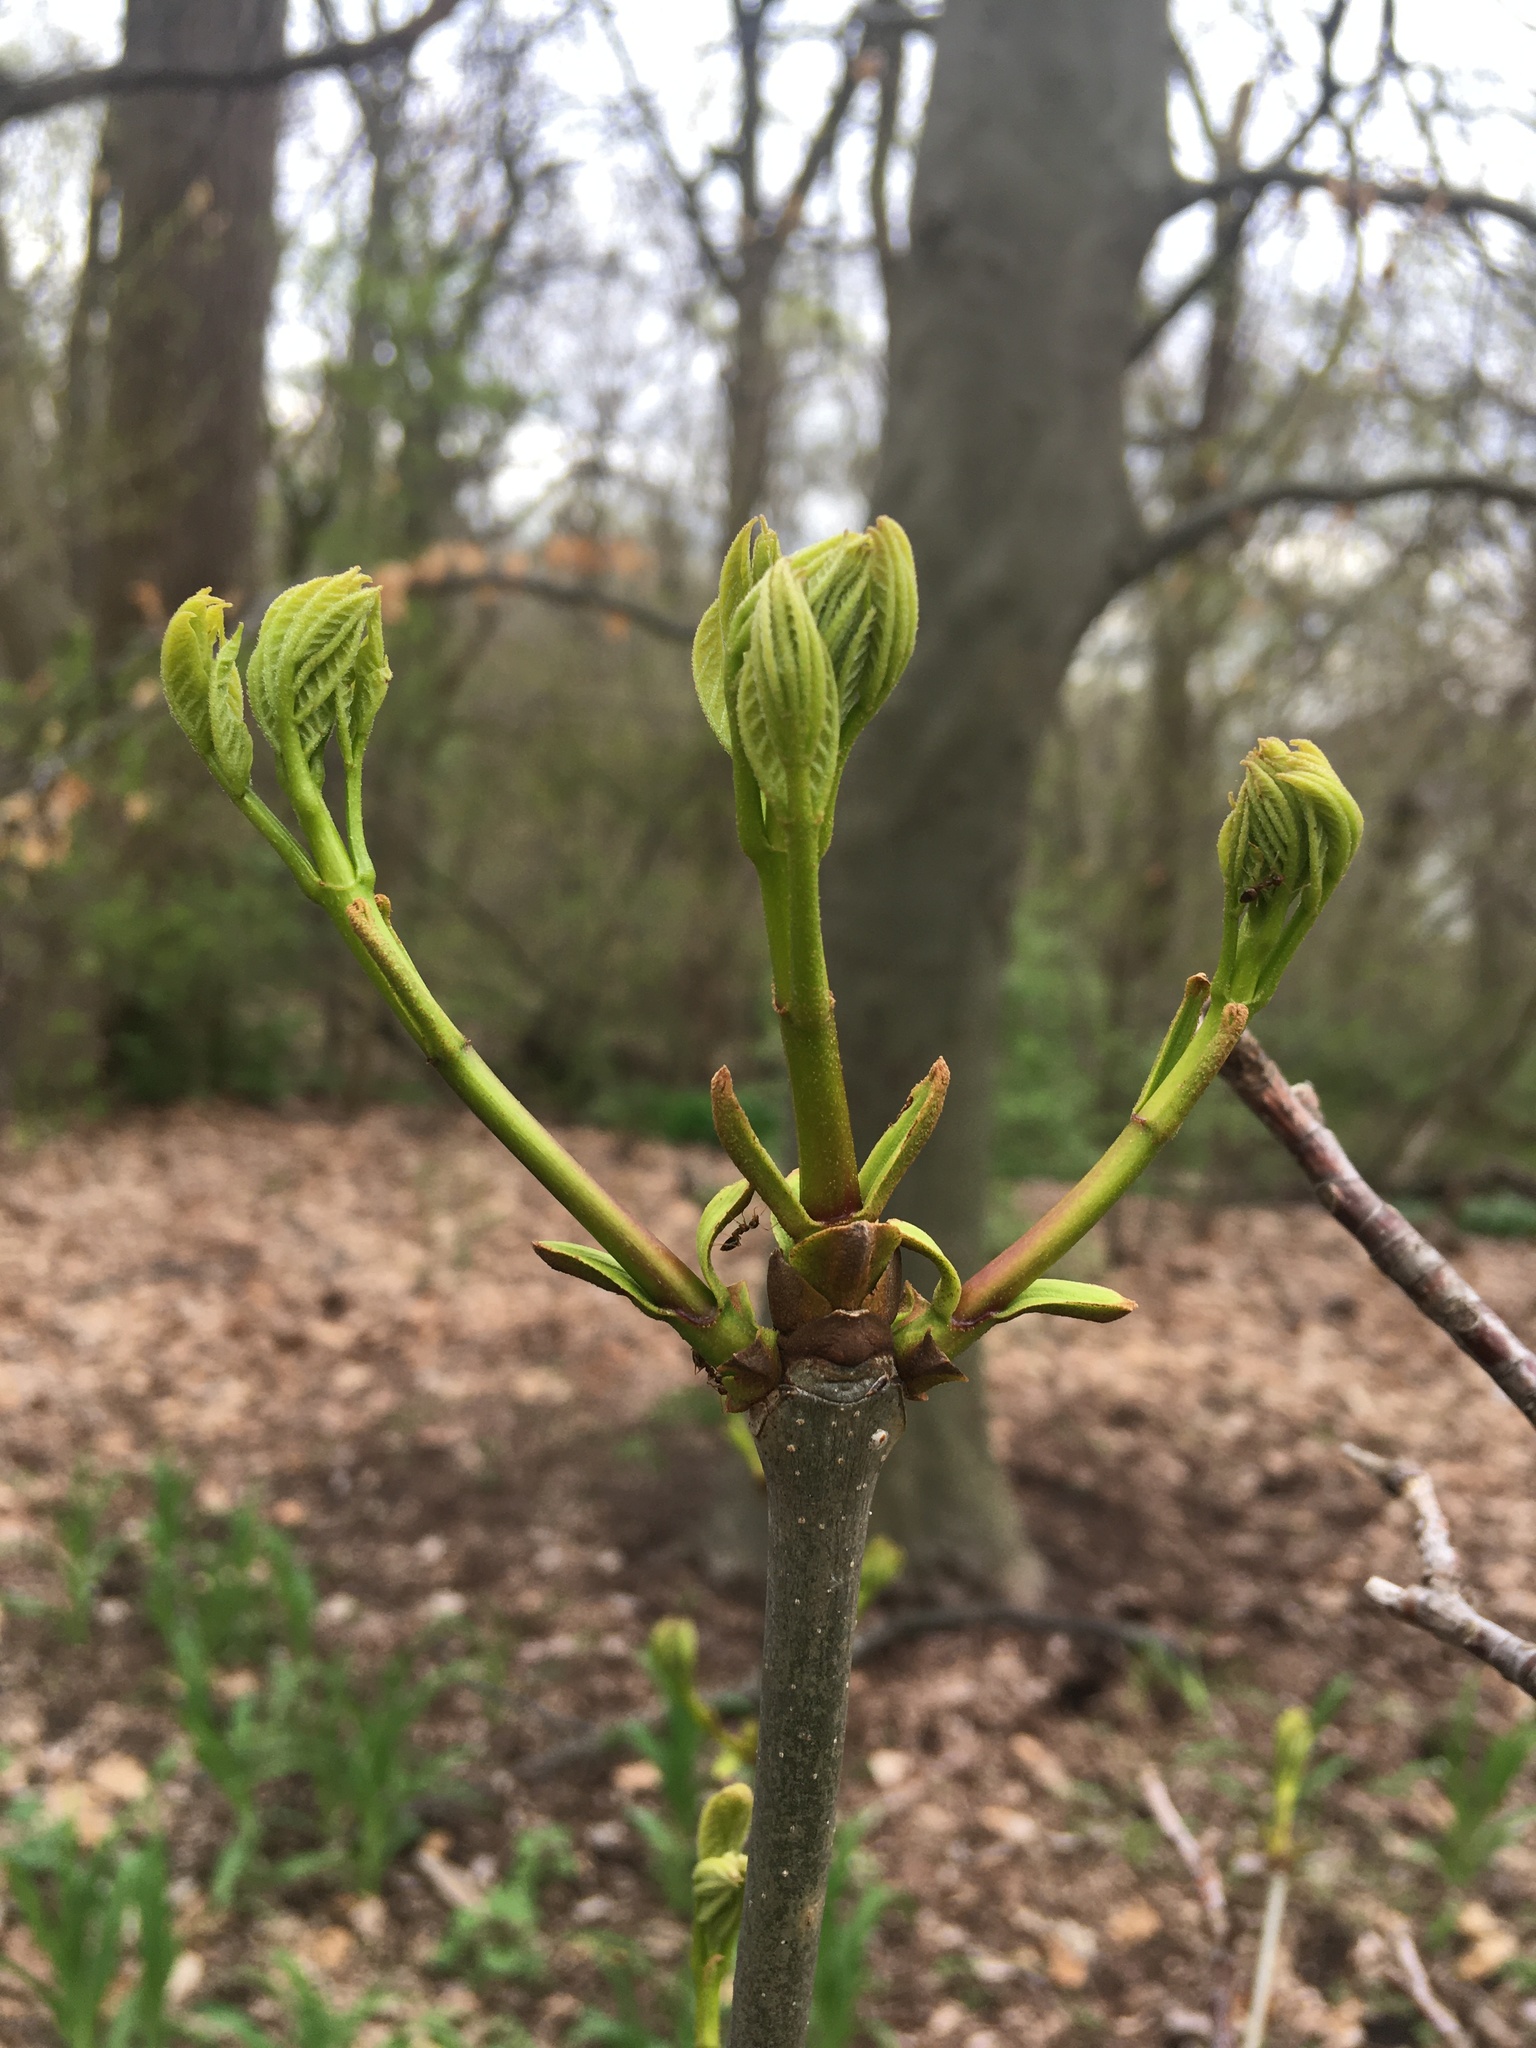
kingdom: Plantae
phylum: Tracheophyta
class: Magnoliopsida
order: Lamiales
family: Oleaceae
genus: Fraxinus
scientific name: Fraxinus pennsylvanica
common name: Green ash
